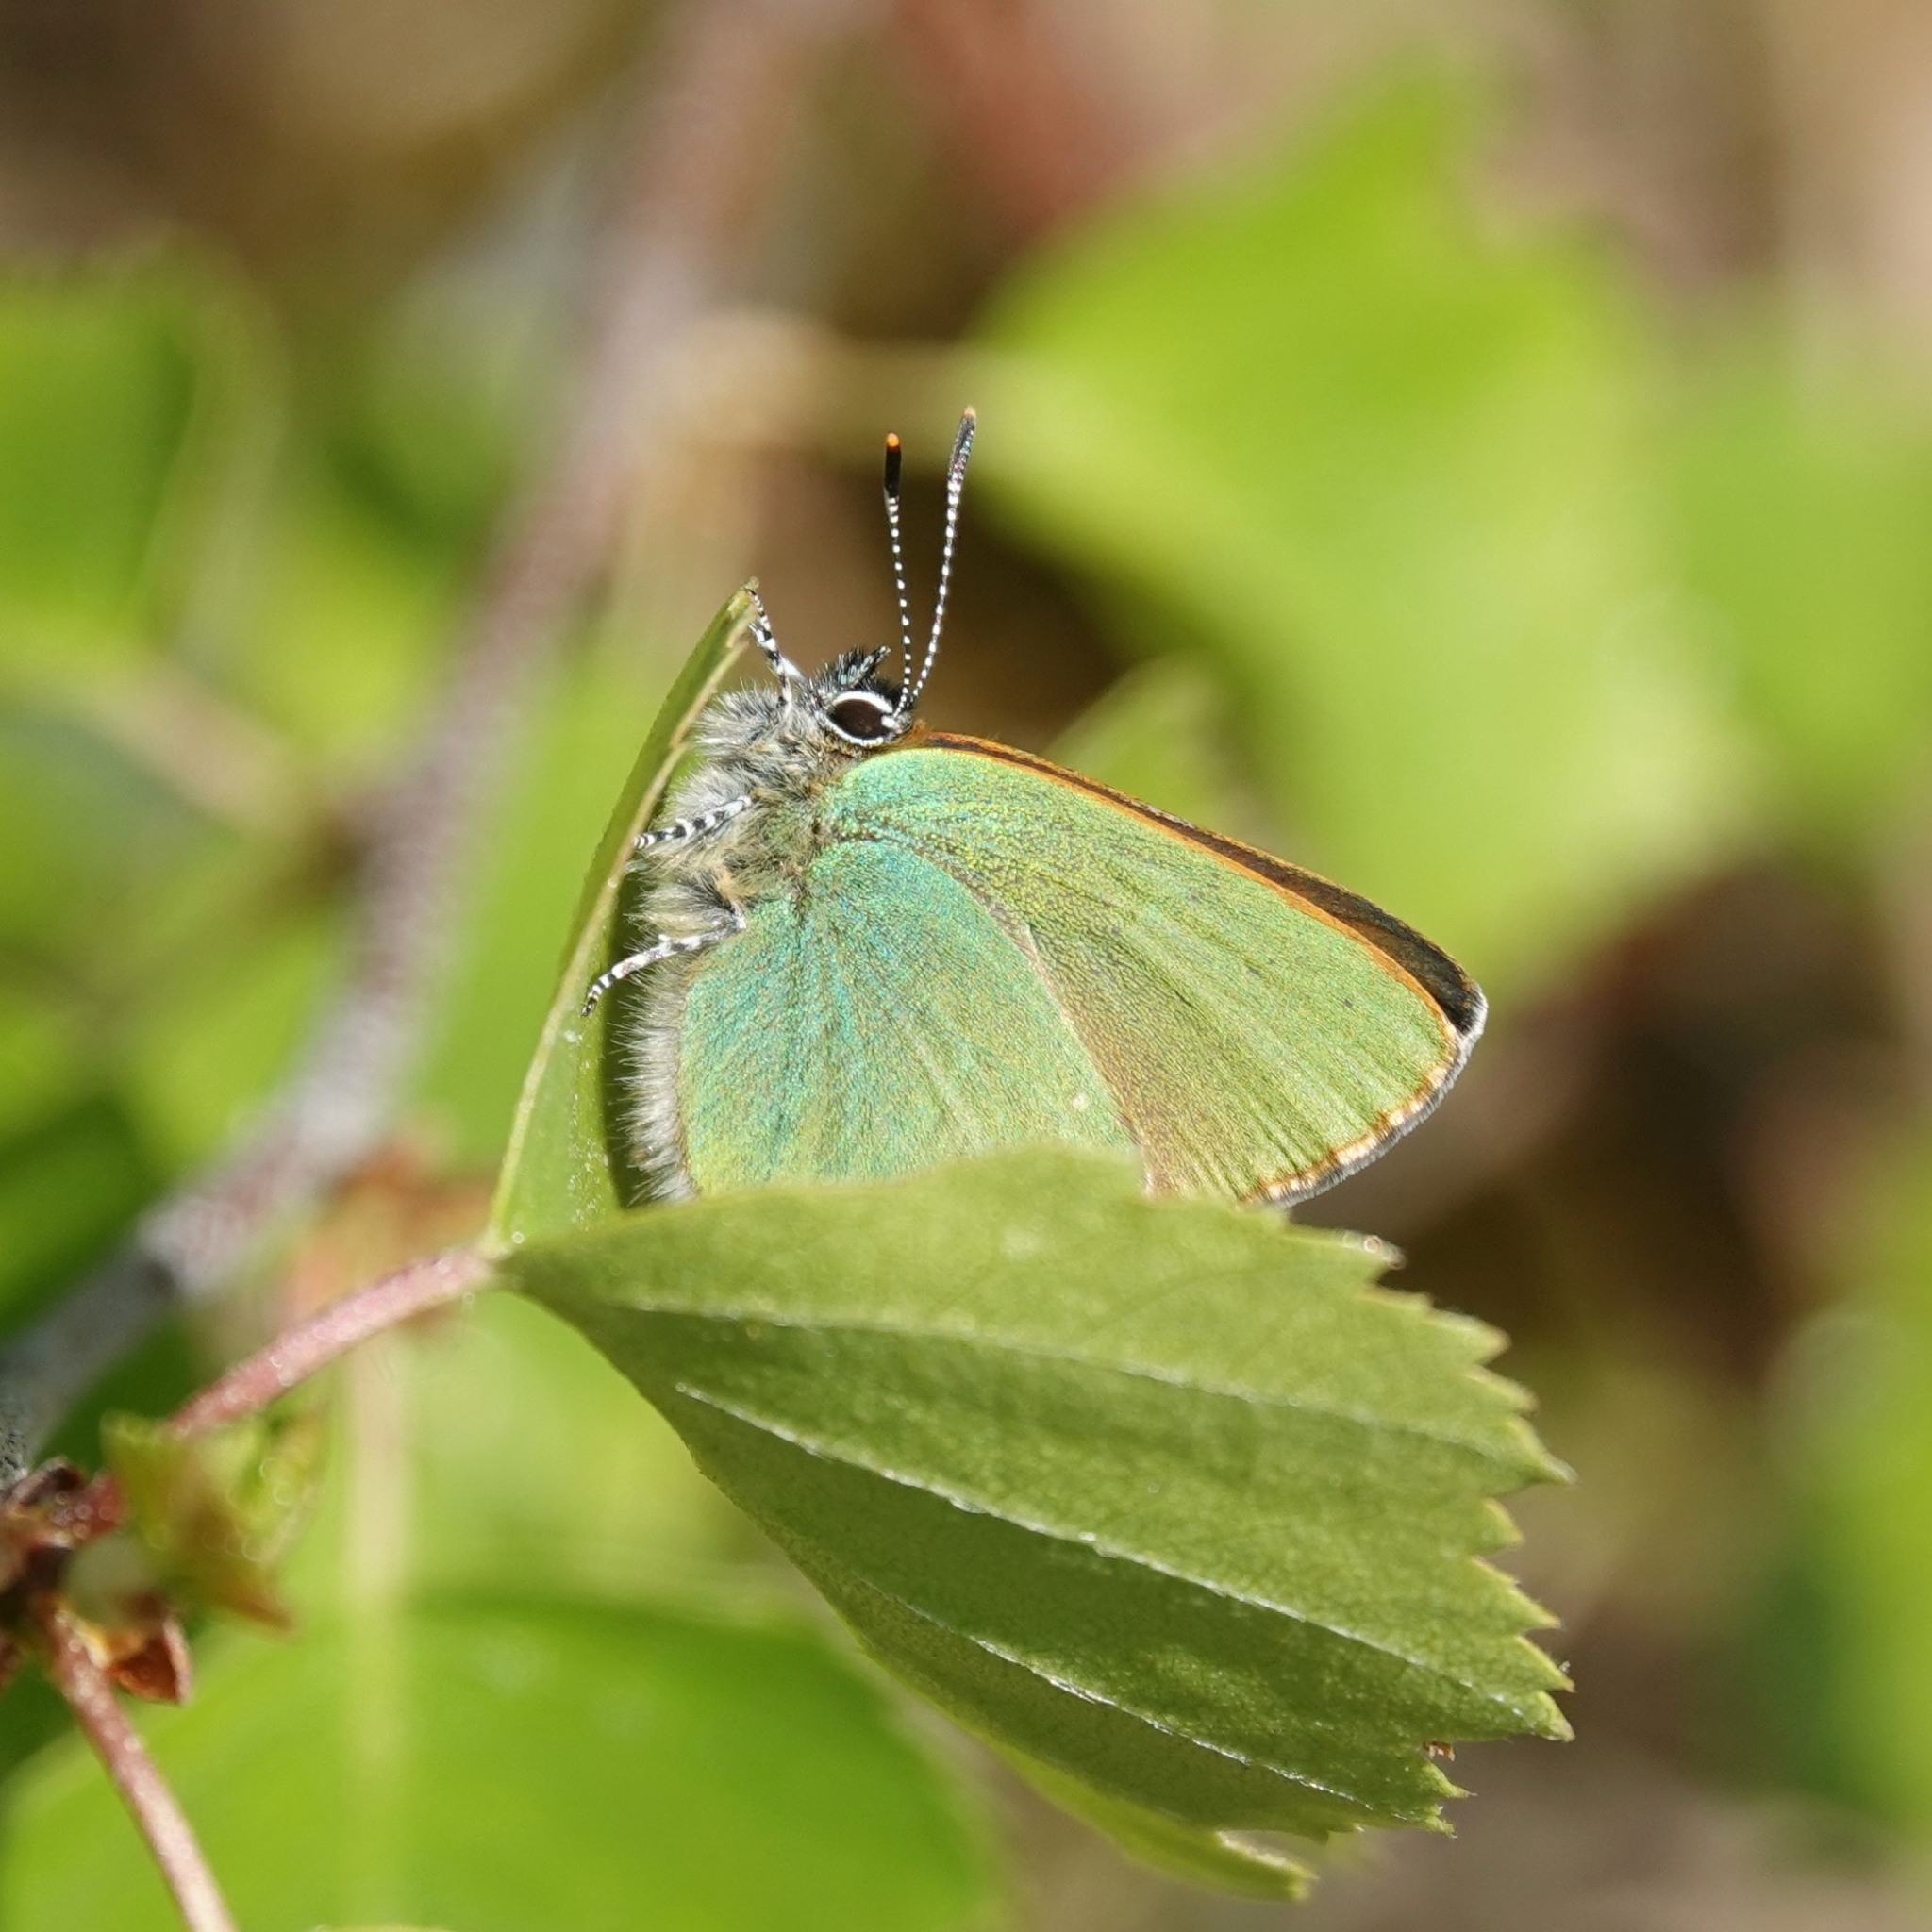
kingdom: Animalia
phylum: Arthropoda
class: Insecta
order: Lepidoptera
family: Lycaenidae
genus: Callophrys
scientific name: Callophrys rubi
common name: Green hairstreak
